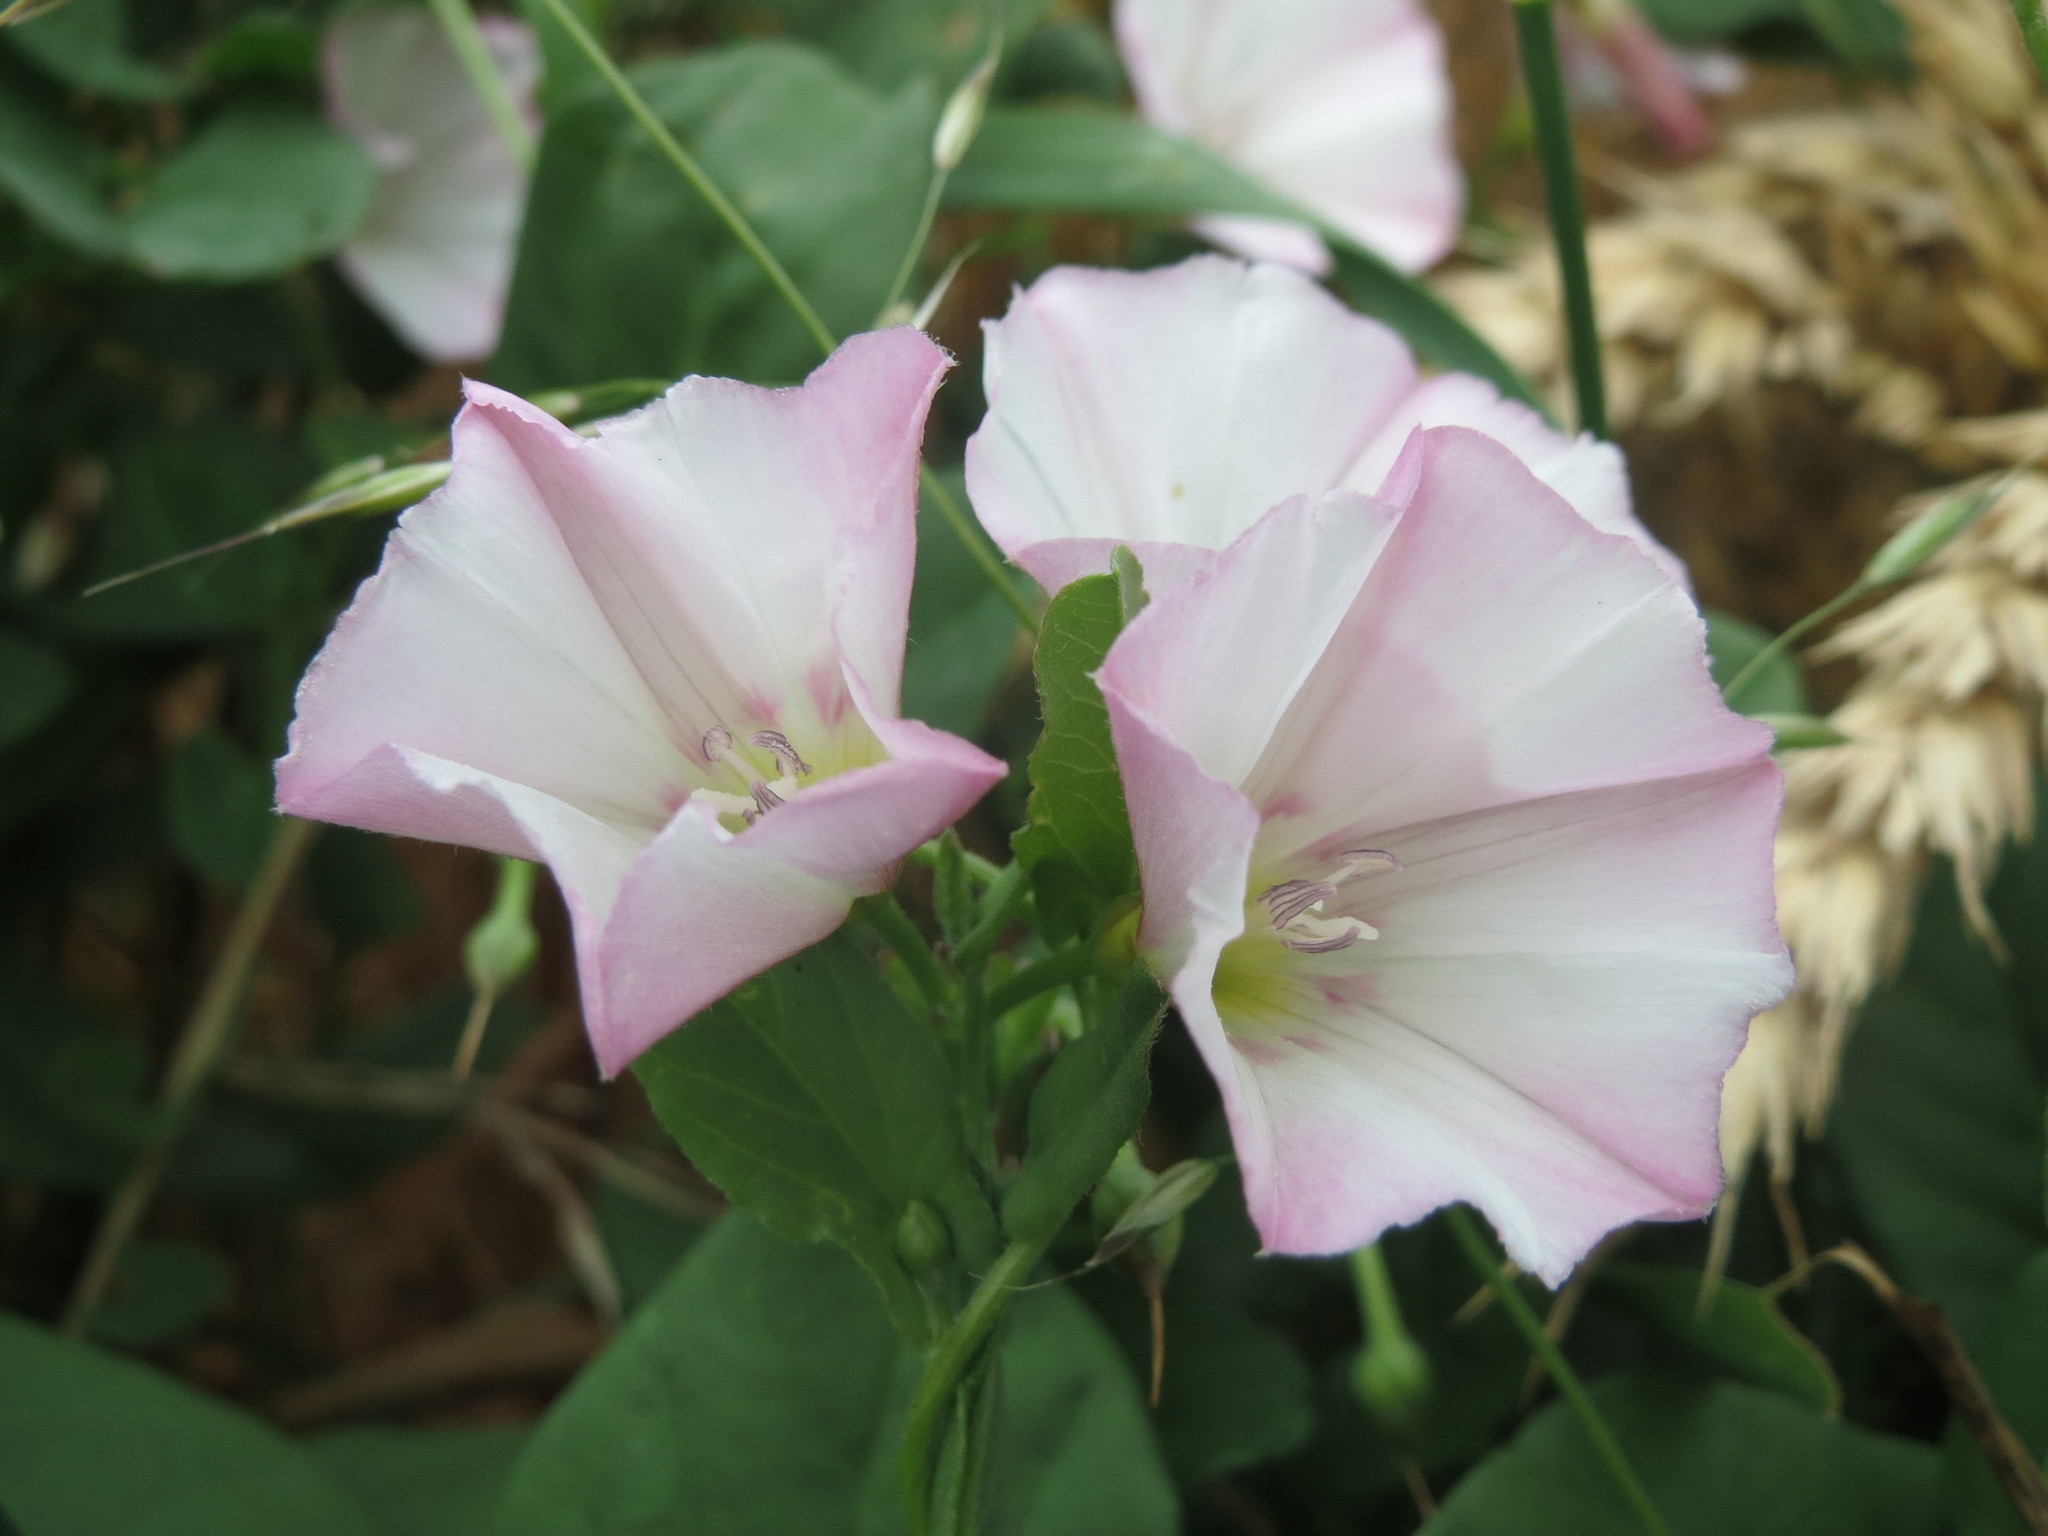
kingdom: Plantae
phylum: Tracheophyta
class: Magnoliopsida
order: Solanales
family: Convolvulaceae
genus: Convolvulus
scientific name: Convolvulus arvensis
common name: Field bindweed
